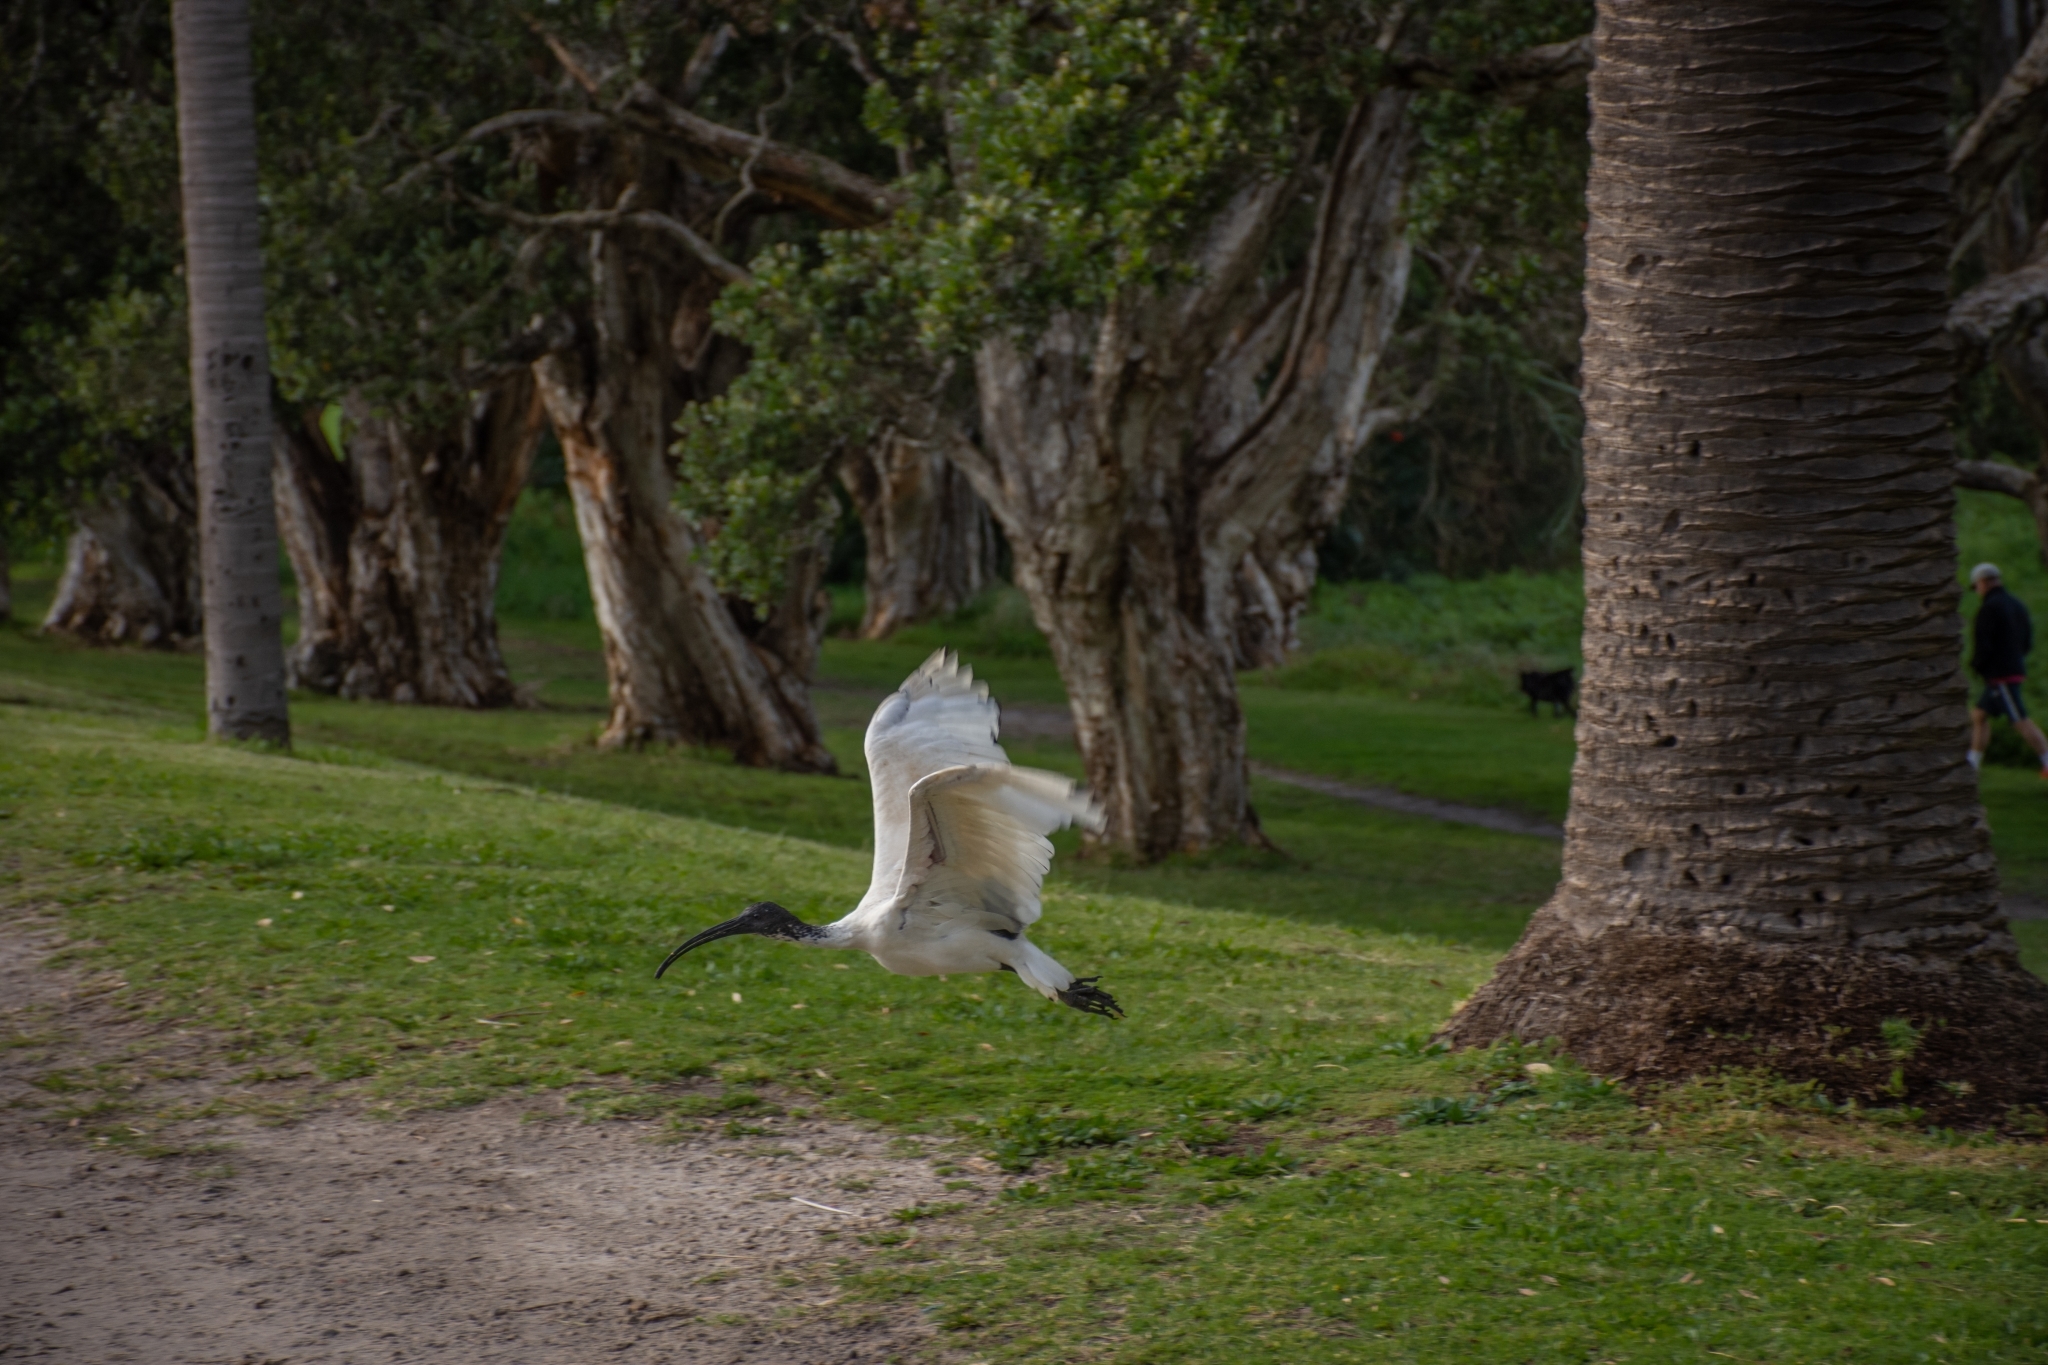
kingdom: Animalia
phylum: Chordata
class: Aves
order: Pelecaniformes
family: Threskiornithidae
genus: Threskiornis
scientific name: Threskiornis molucca
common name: Australian white ibis
